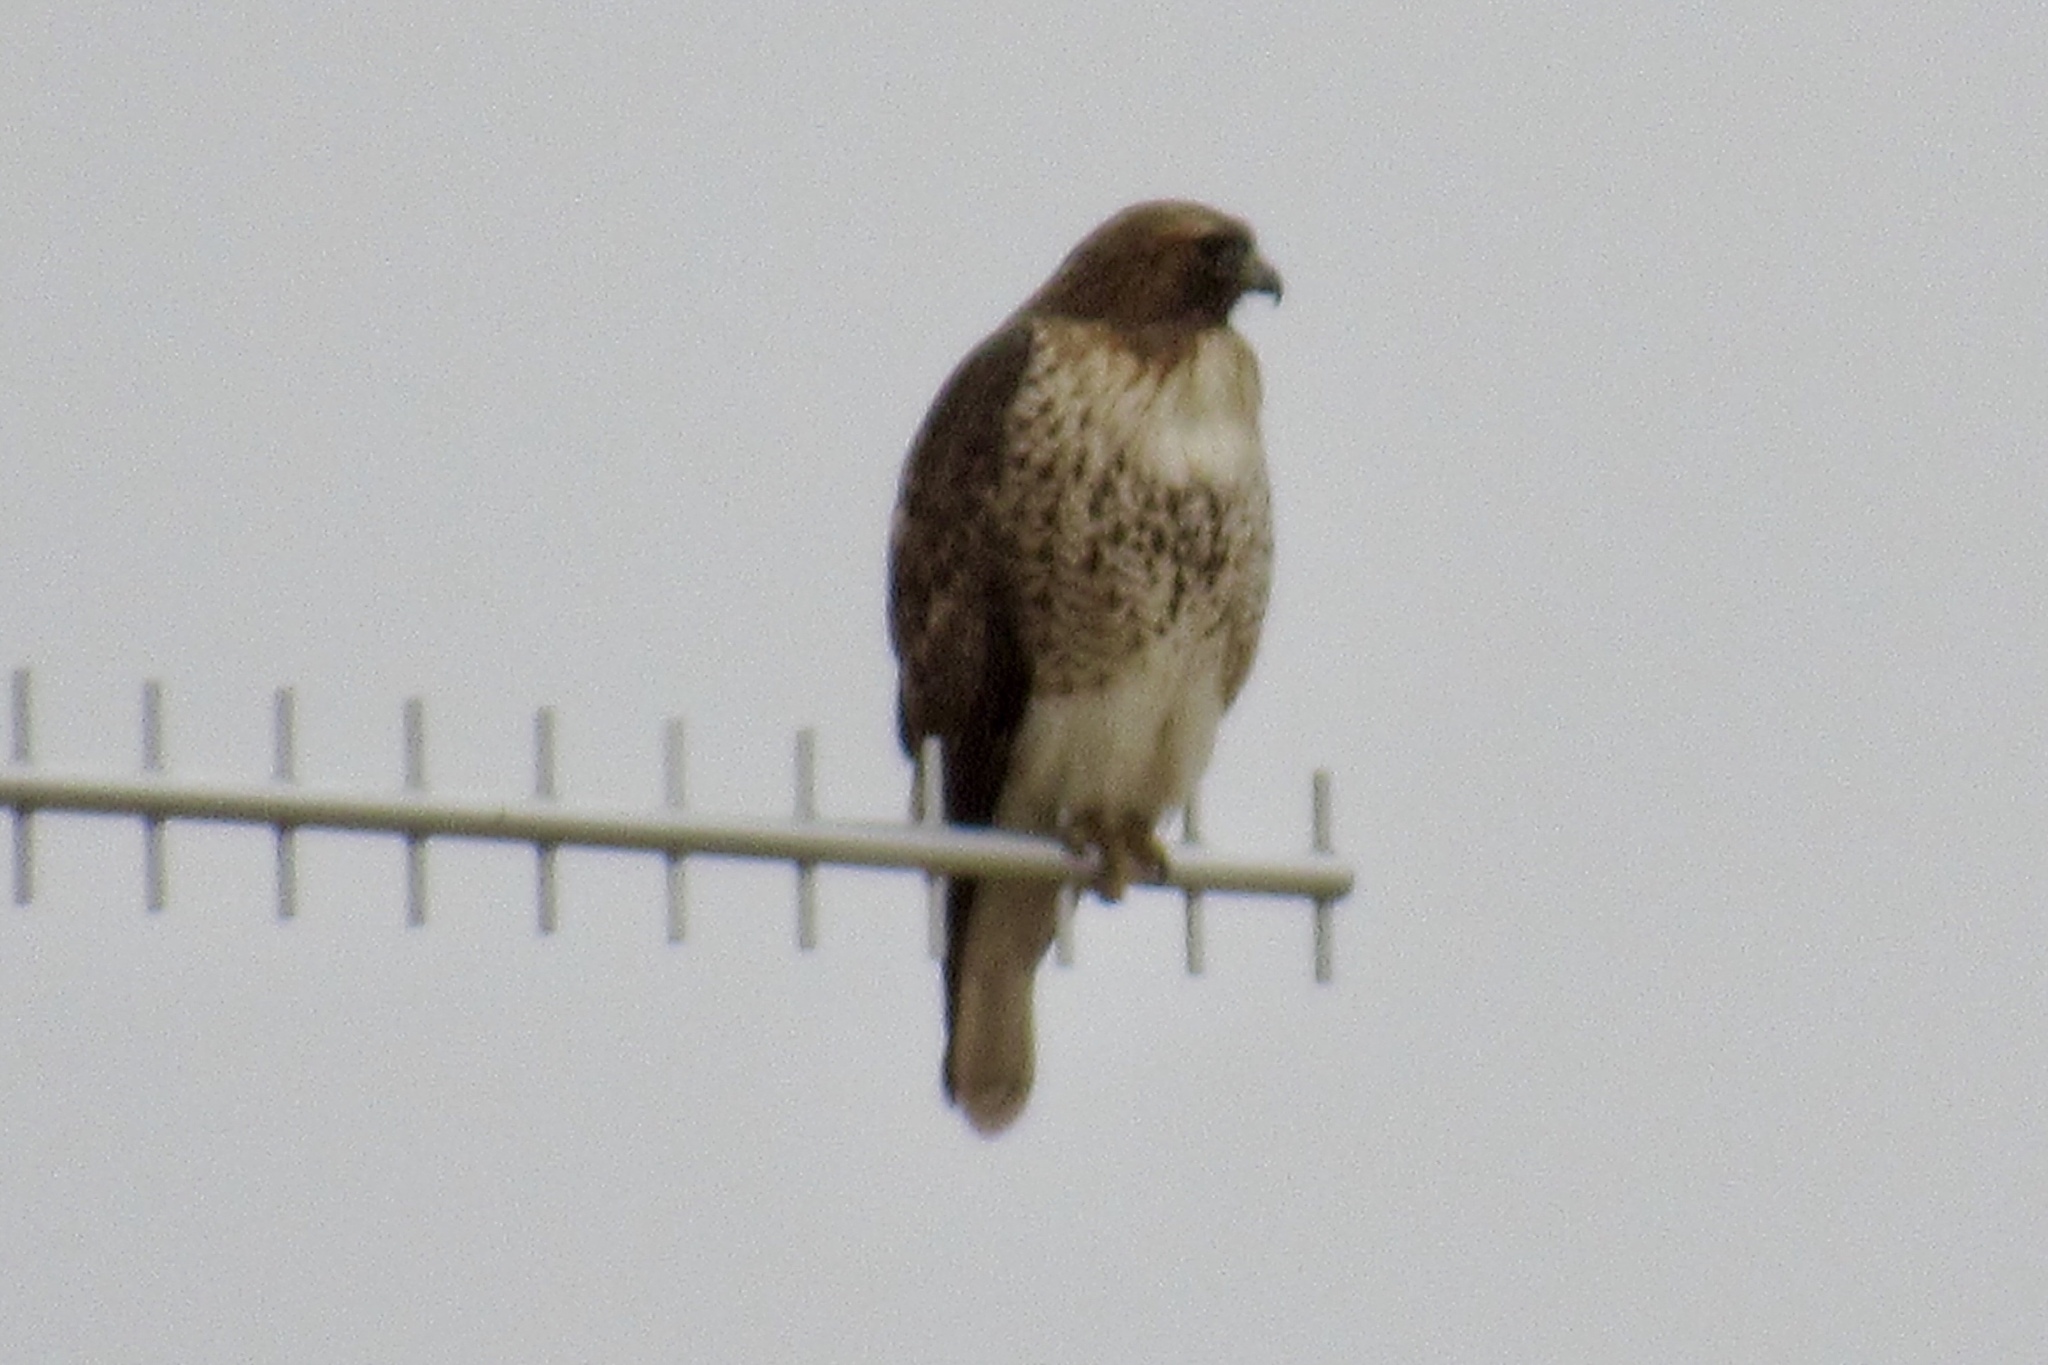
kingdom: Animalia
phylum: Chordata
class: Aves
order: Accipitriformes
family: Accipitridae
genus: Buteo
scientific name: Buteo jamaicensis
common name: Red-tailed hawk
